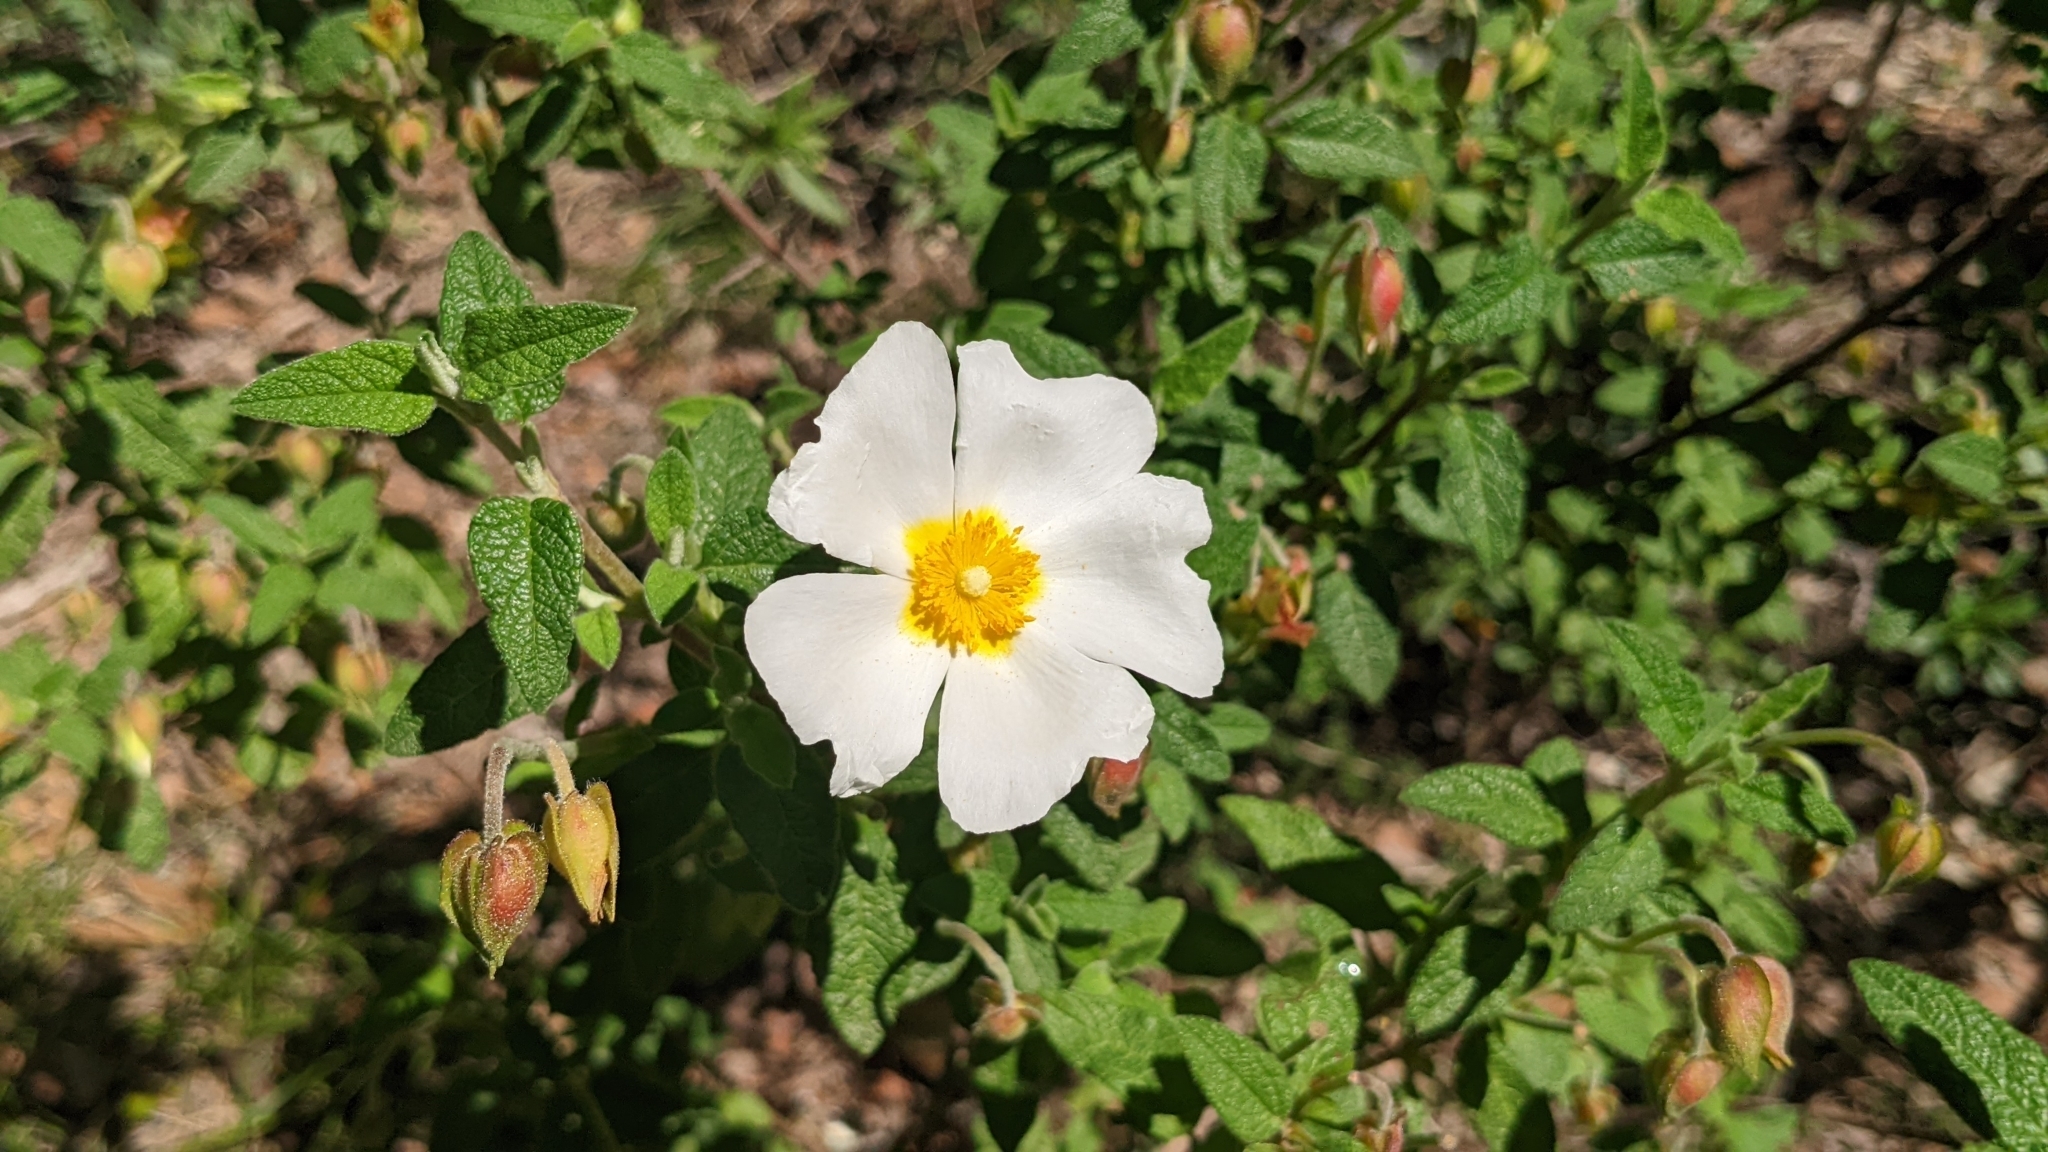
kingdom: Plantae
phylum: Tracheophyta
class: Magnoliopsida
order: Malvales
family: Cistaceae
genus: Cistus
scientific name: Cistus salviifolius
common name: Salvia cistus
